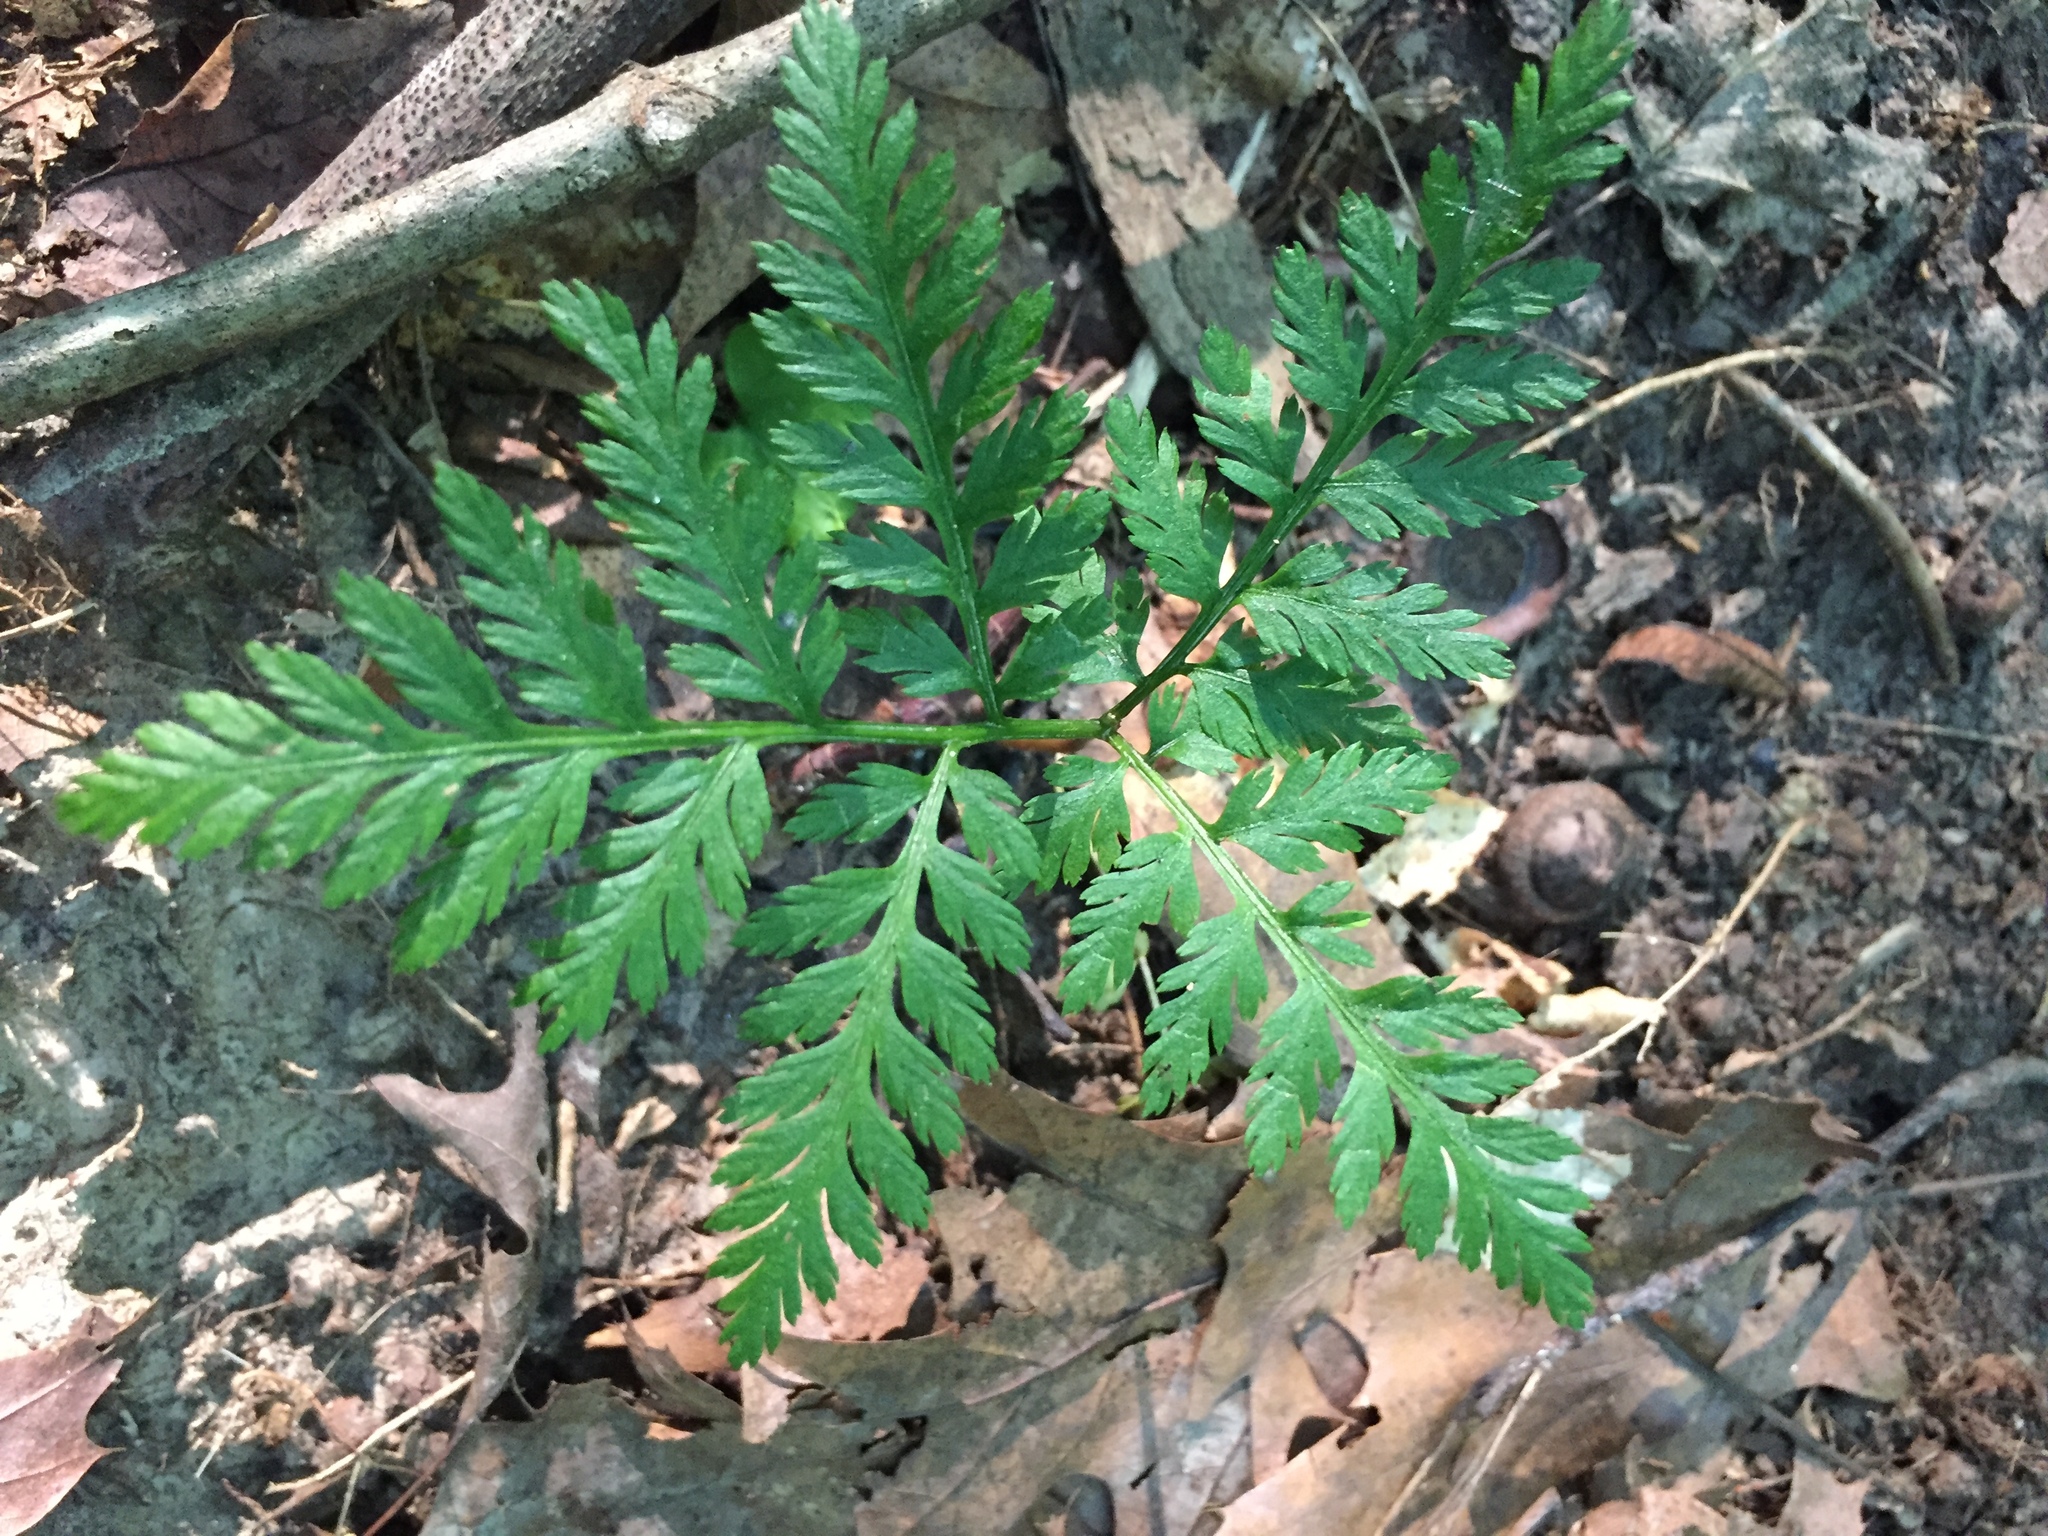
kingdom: Plantae
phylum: Tracheophyta
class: Polypodiopsida
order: Ophioglossales
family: Ophioglossaceae
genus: Botrypus
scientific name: Botrypus virginianus
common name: Common grapefern
